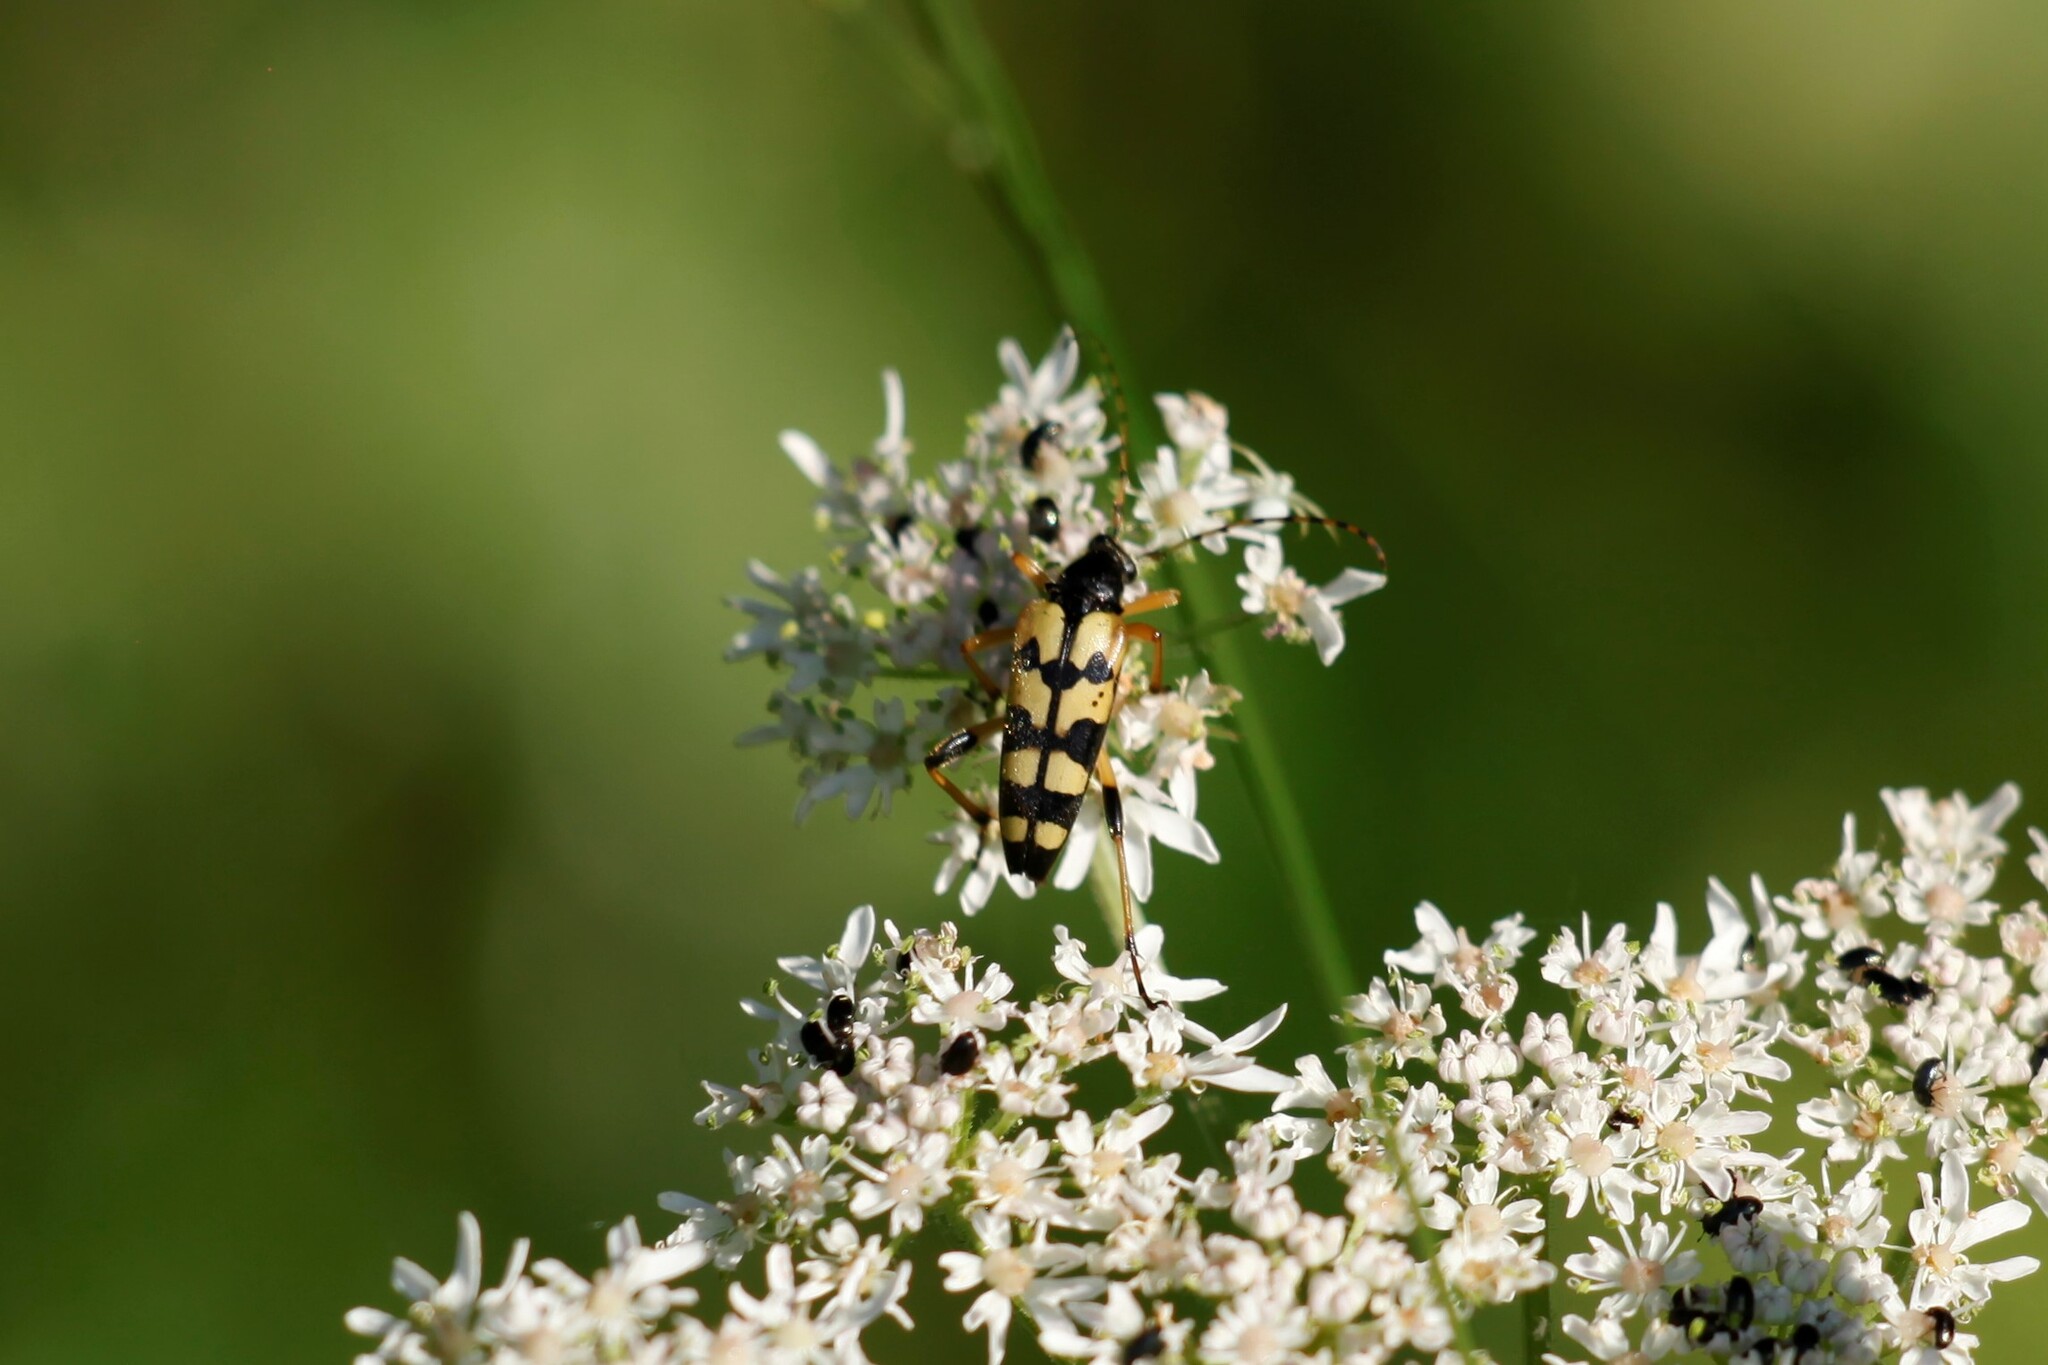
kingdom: Animalia
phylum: Arthropoda
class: Insecta
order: Coleoptera
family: Cerambycidae
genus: Rutpela
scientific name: Rutpela maculata
